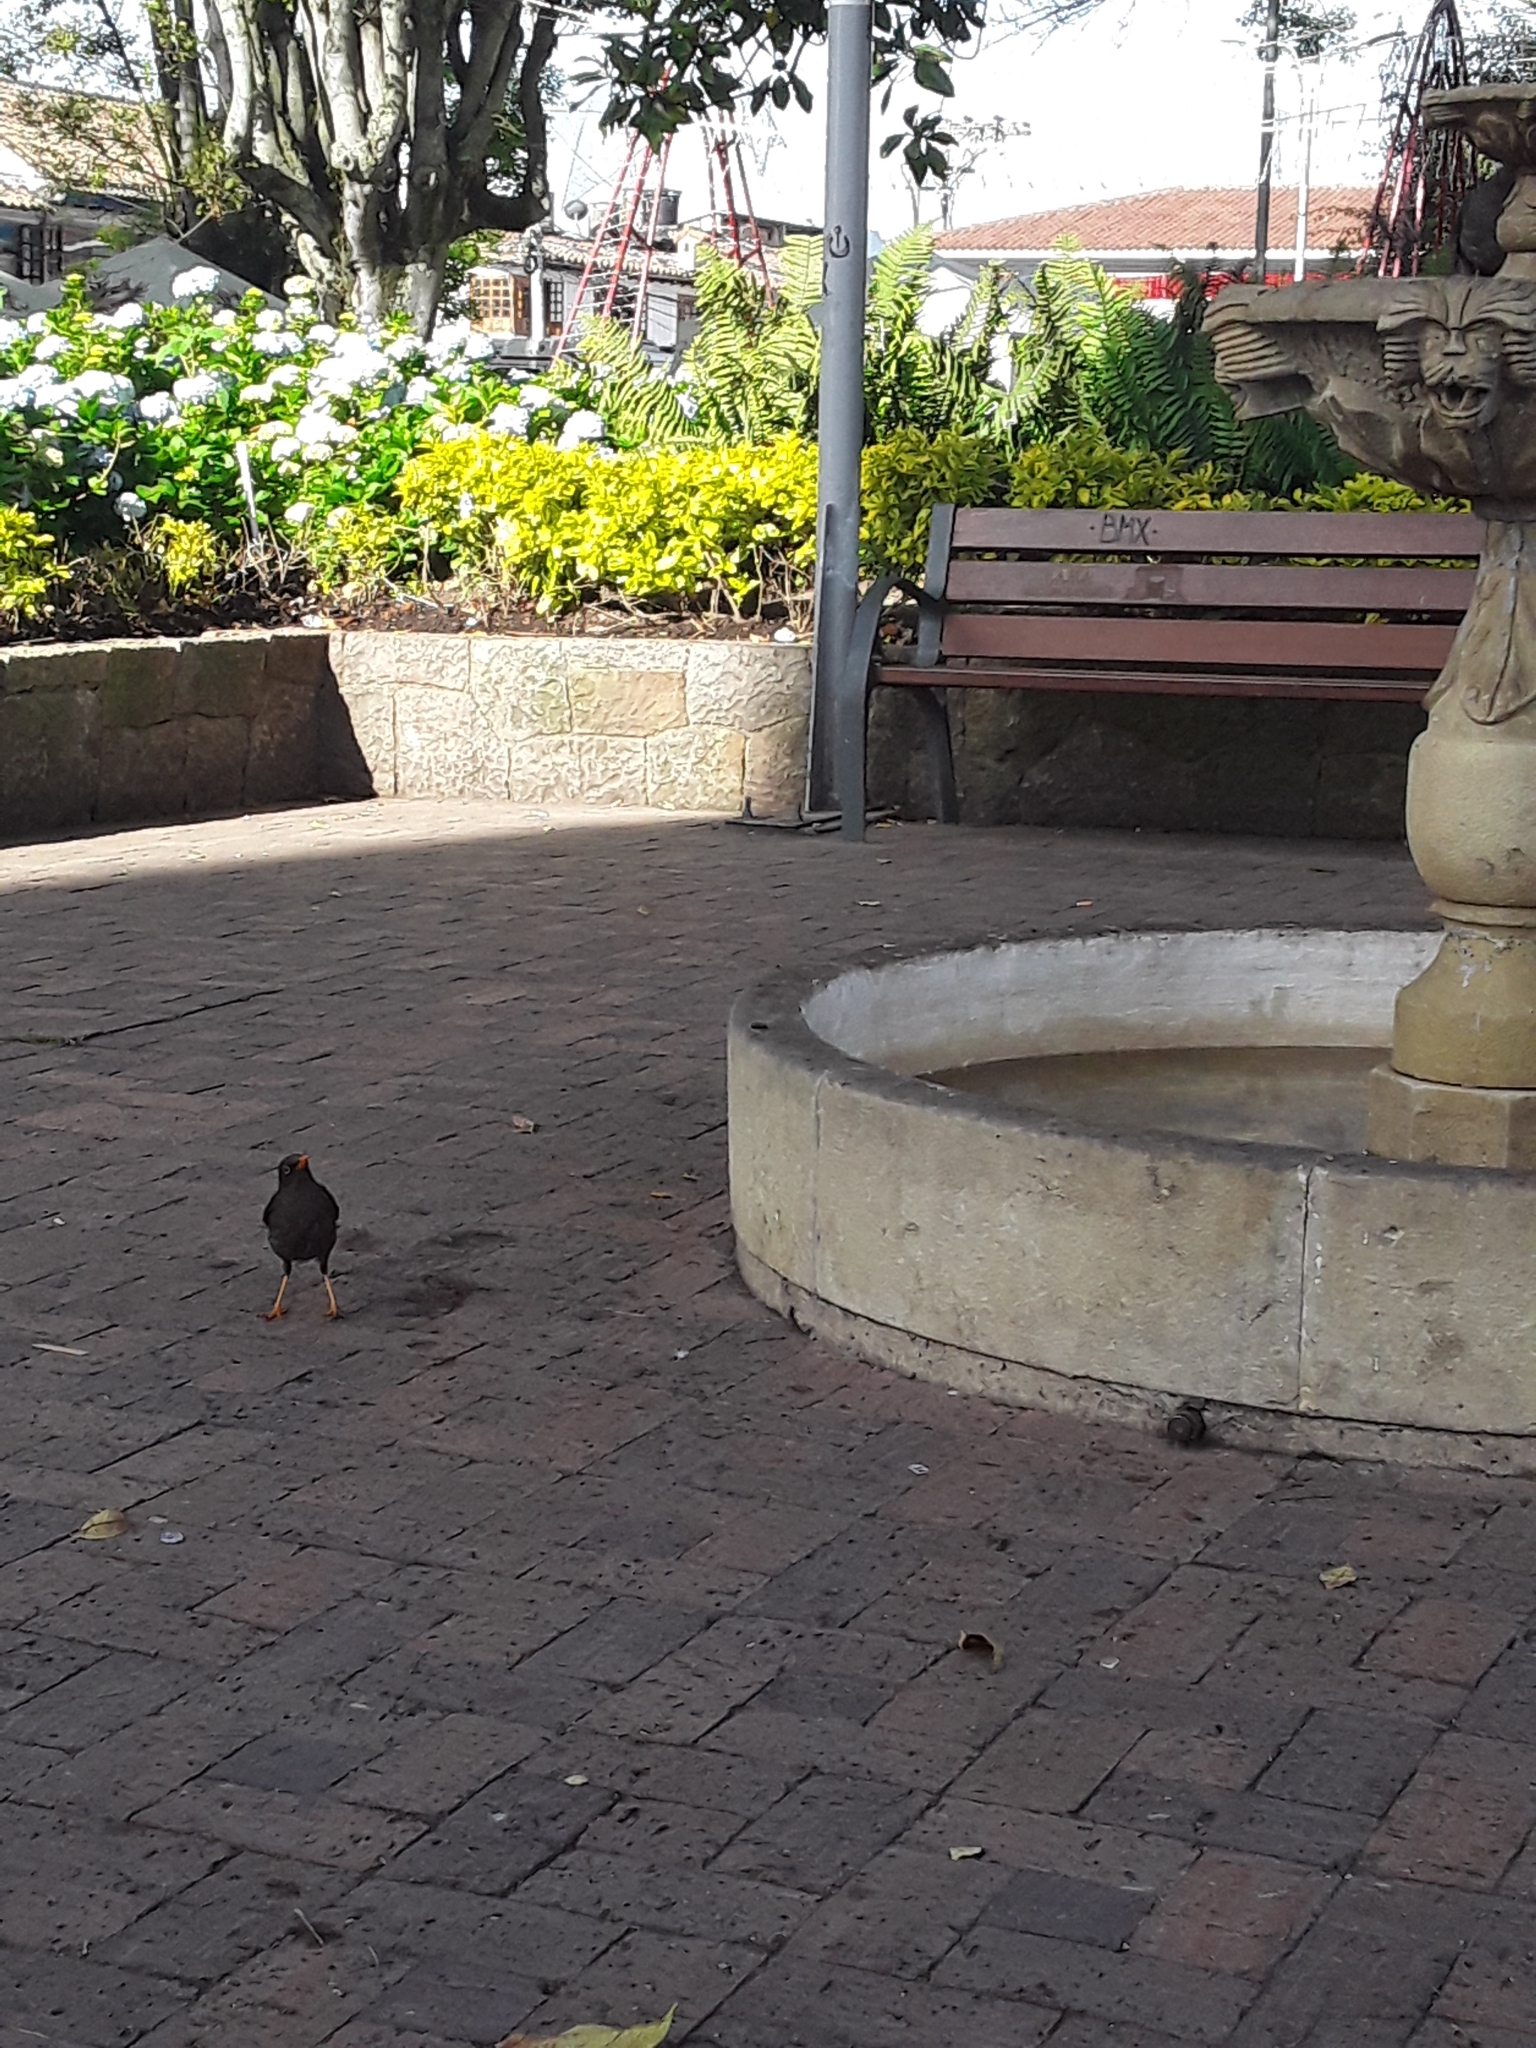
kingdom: Animalia
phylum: Chordata
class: Aves
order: Passeriformes
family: Turdidae
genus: Turdus
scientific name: Turdus fuscater
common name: Great thrush
